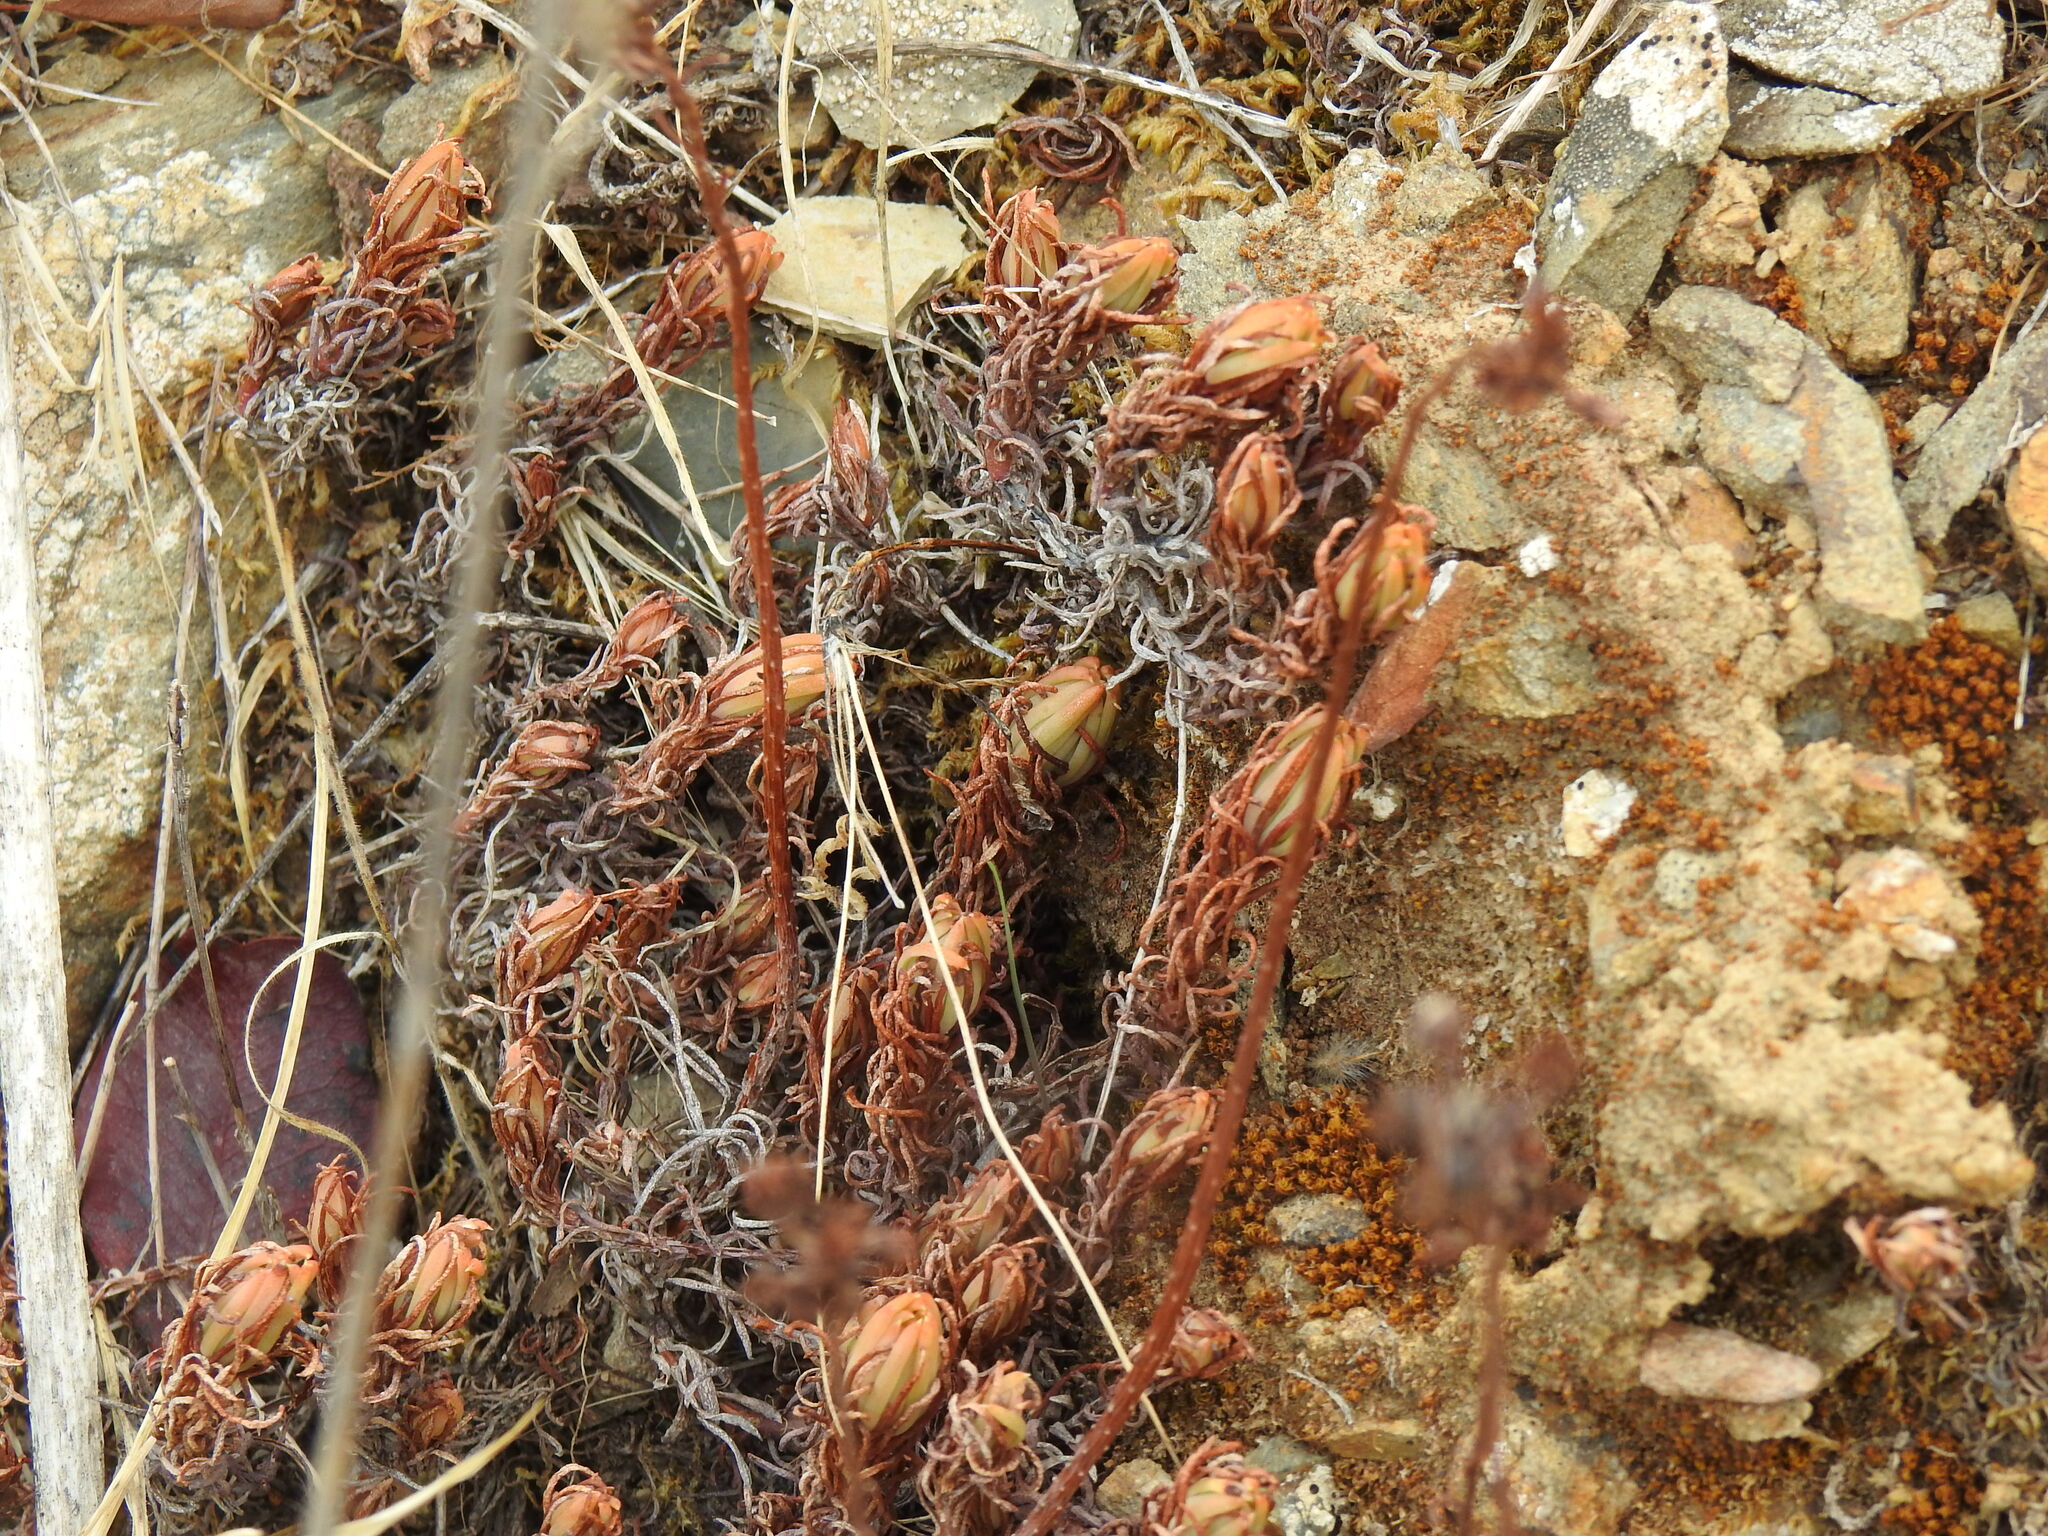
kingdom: Plantae
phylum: Tracheophyta
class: Magnoliopsida
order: Saxifragales
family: Crassulaceae
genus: Petrosedum
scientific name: Petrosedum forsterianum
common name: Forster's stonecrop
